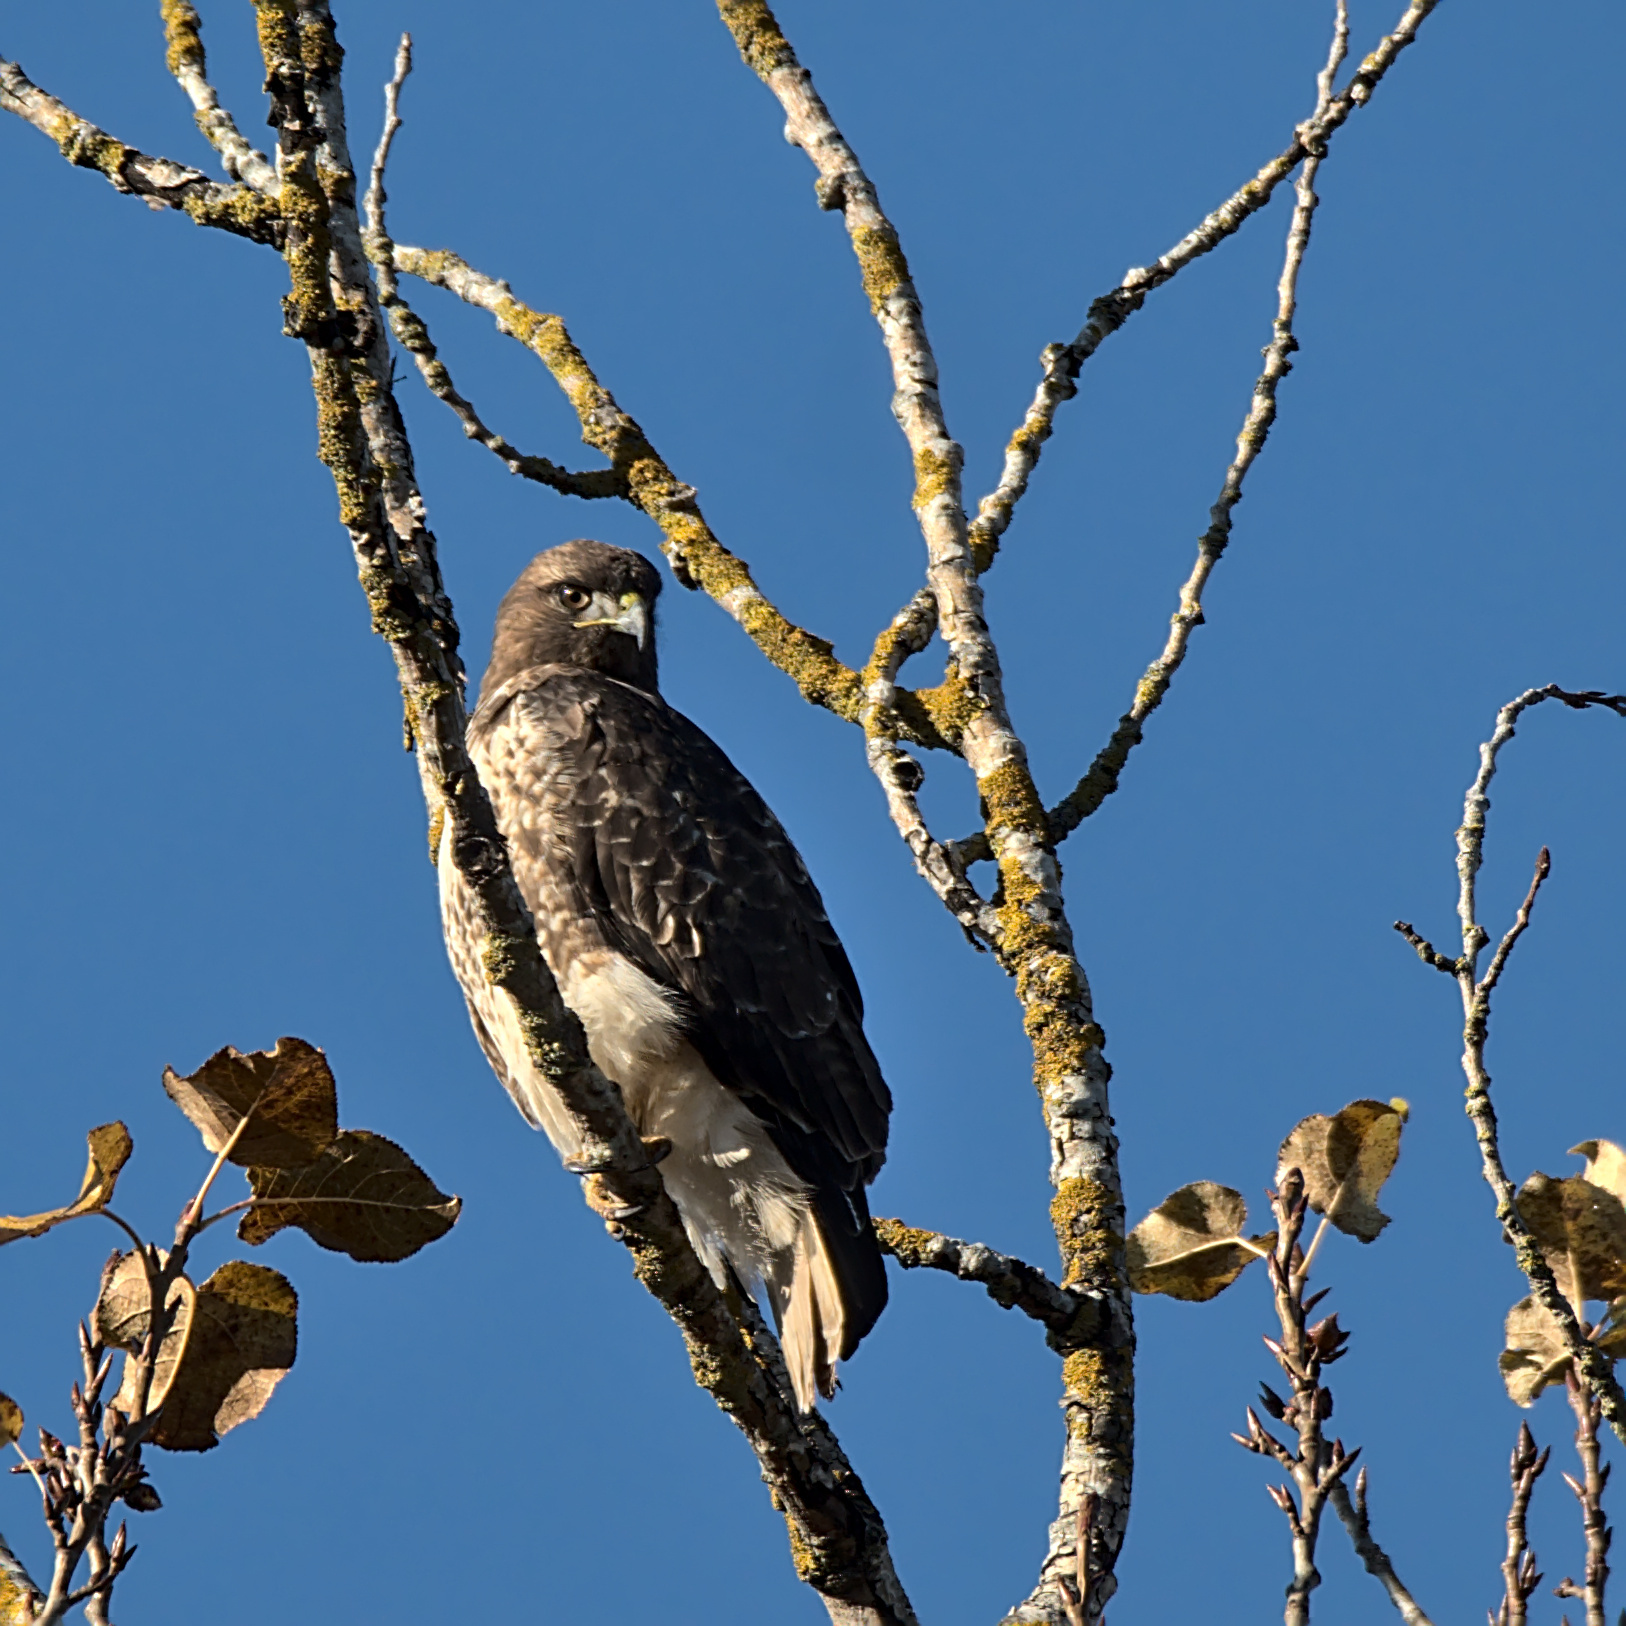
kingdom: Animalia
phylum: Chordata
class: Aves
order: Accipitriformes
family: Accipitridae
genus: Buteo
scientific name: Buteo jamaicensis
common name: Red-tailed hawk
